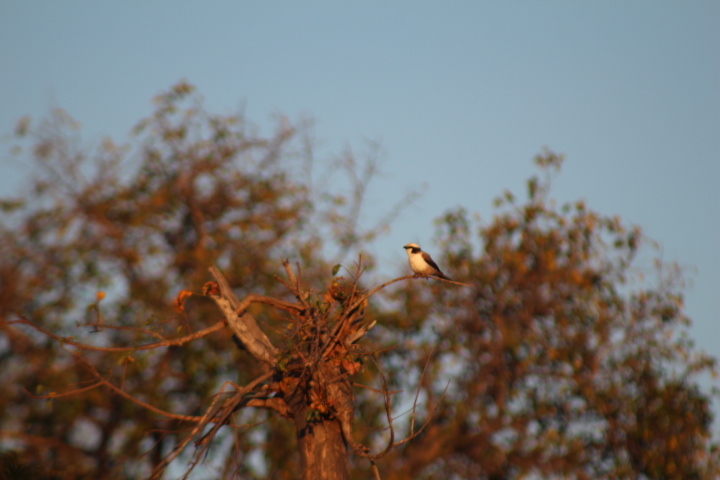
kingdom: Animalia
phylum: Chordata
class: Aves
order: Passeriformes
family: Laniidae
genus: Eurocephalus
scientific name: Eurocephalus anguitimens
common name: Southern white-crowned shrike
